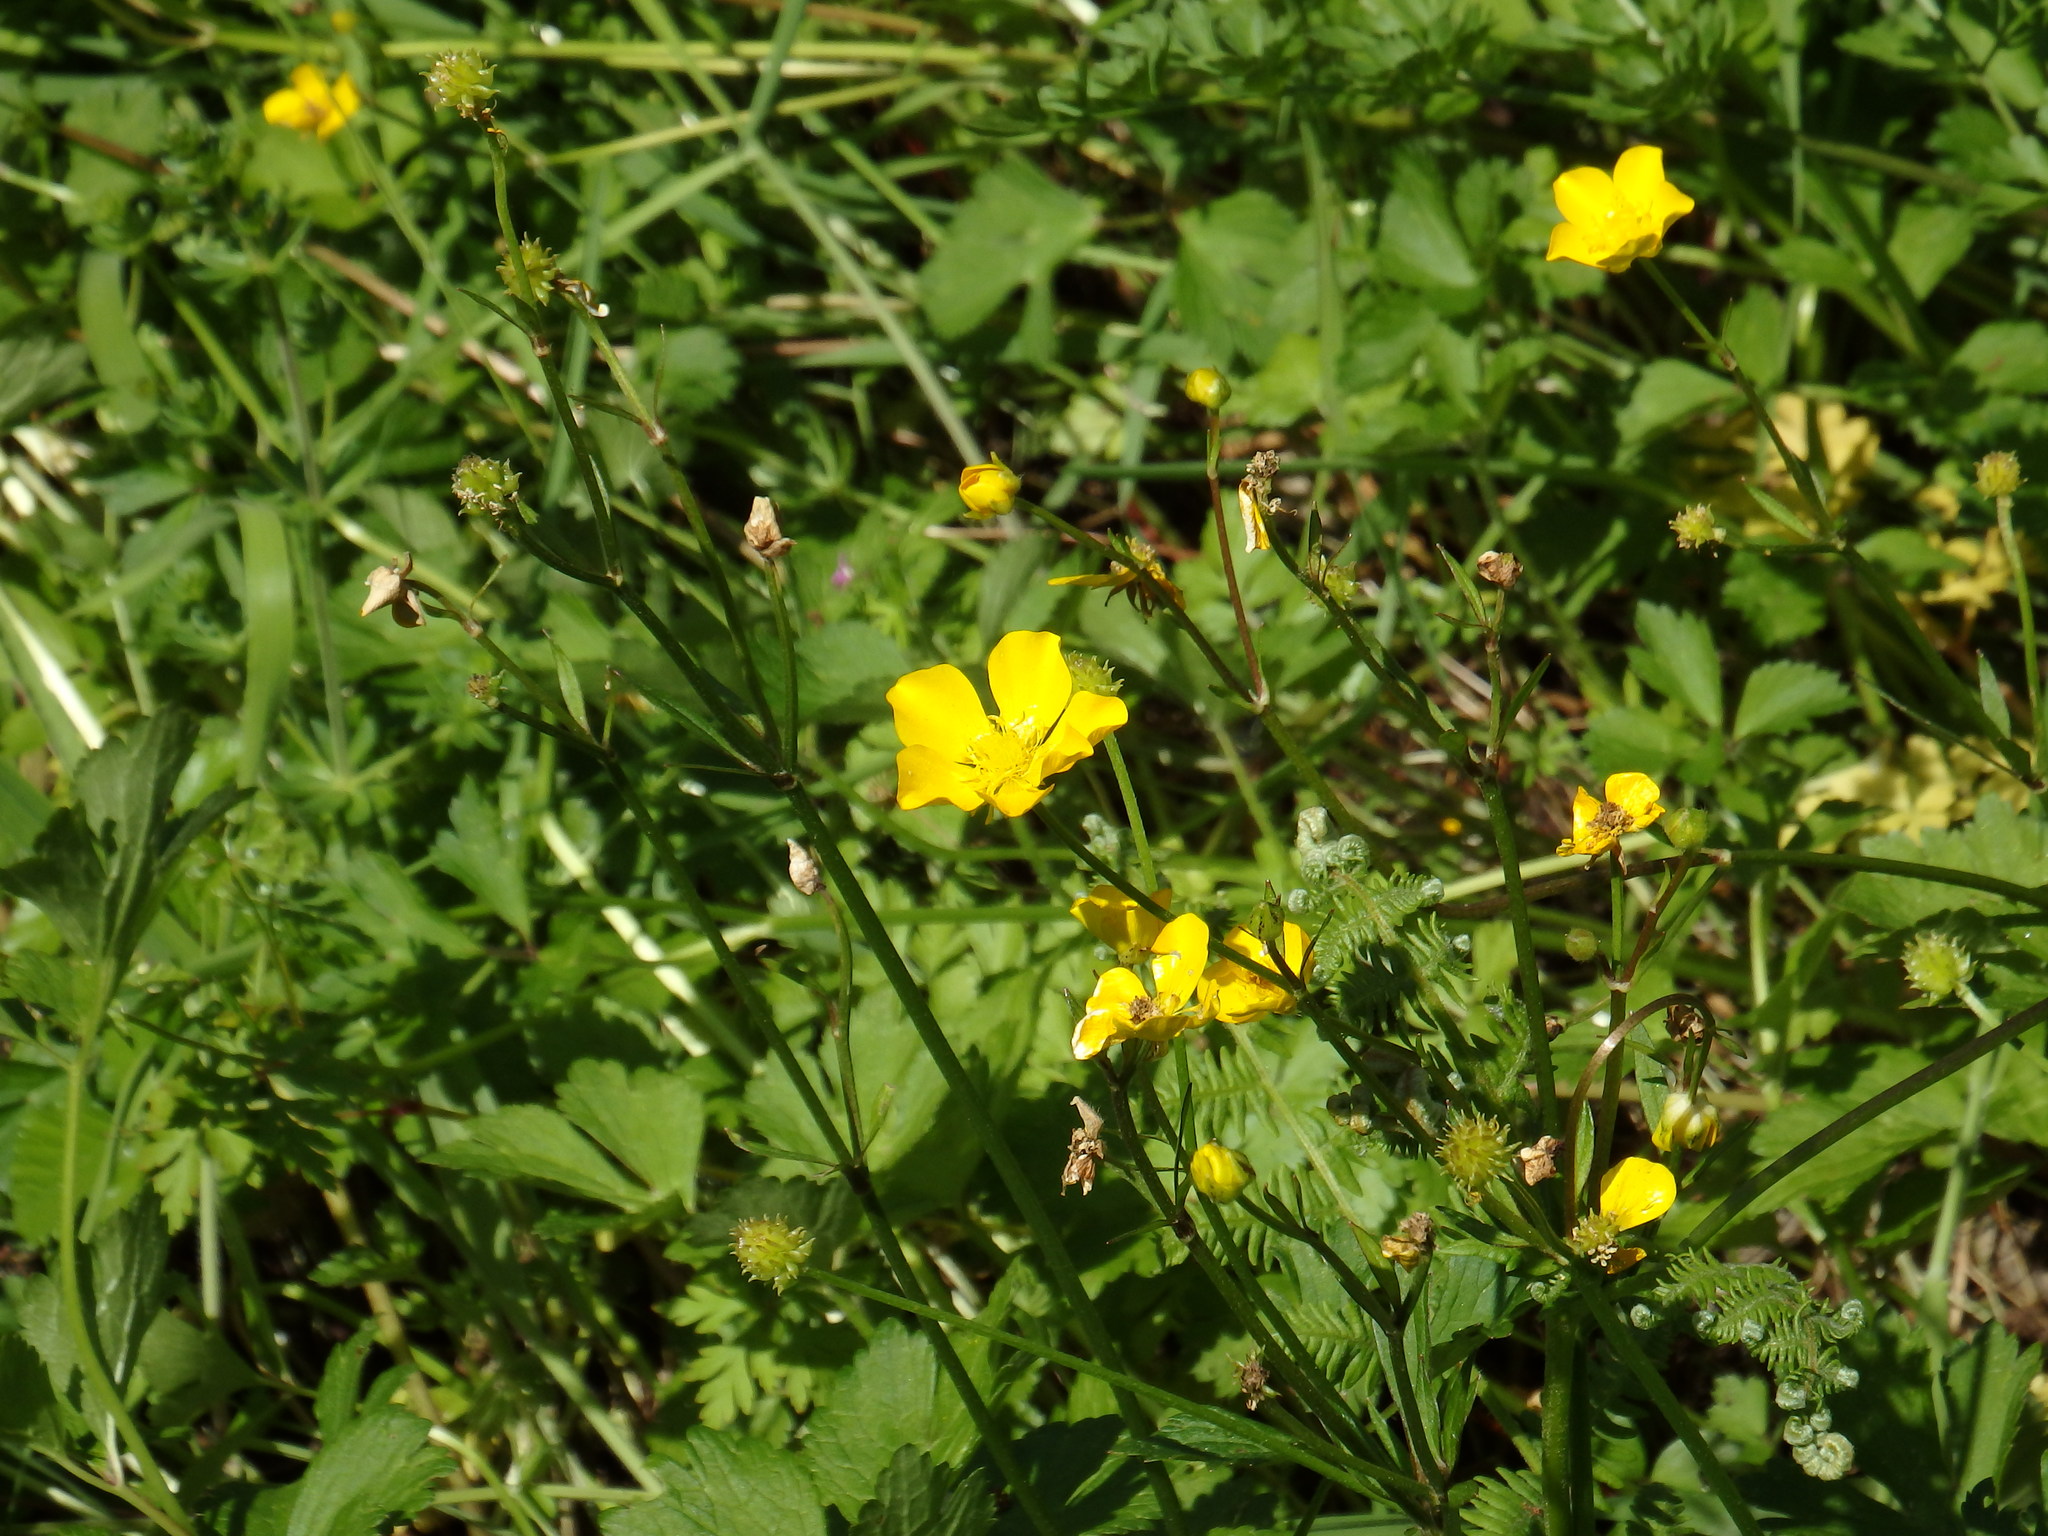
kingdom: Plantae
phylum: Tracheophyta
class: Magnoliopsida
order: Ranunculales
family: Ranunculaceae
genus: Ranunculus
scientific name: Ranunculus repens
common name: Creeping buttercup
